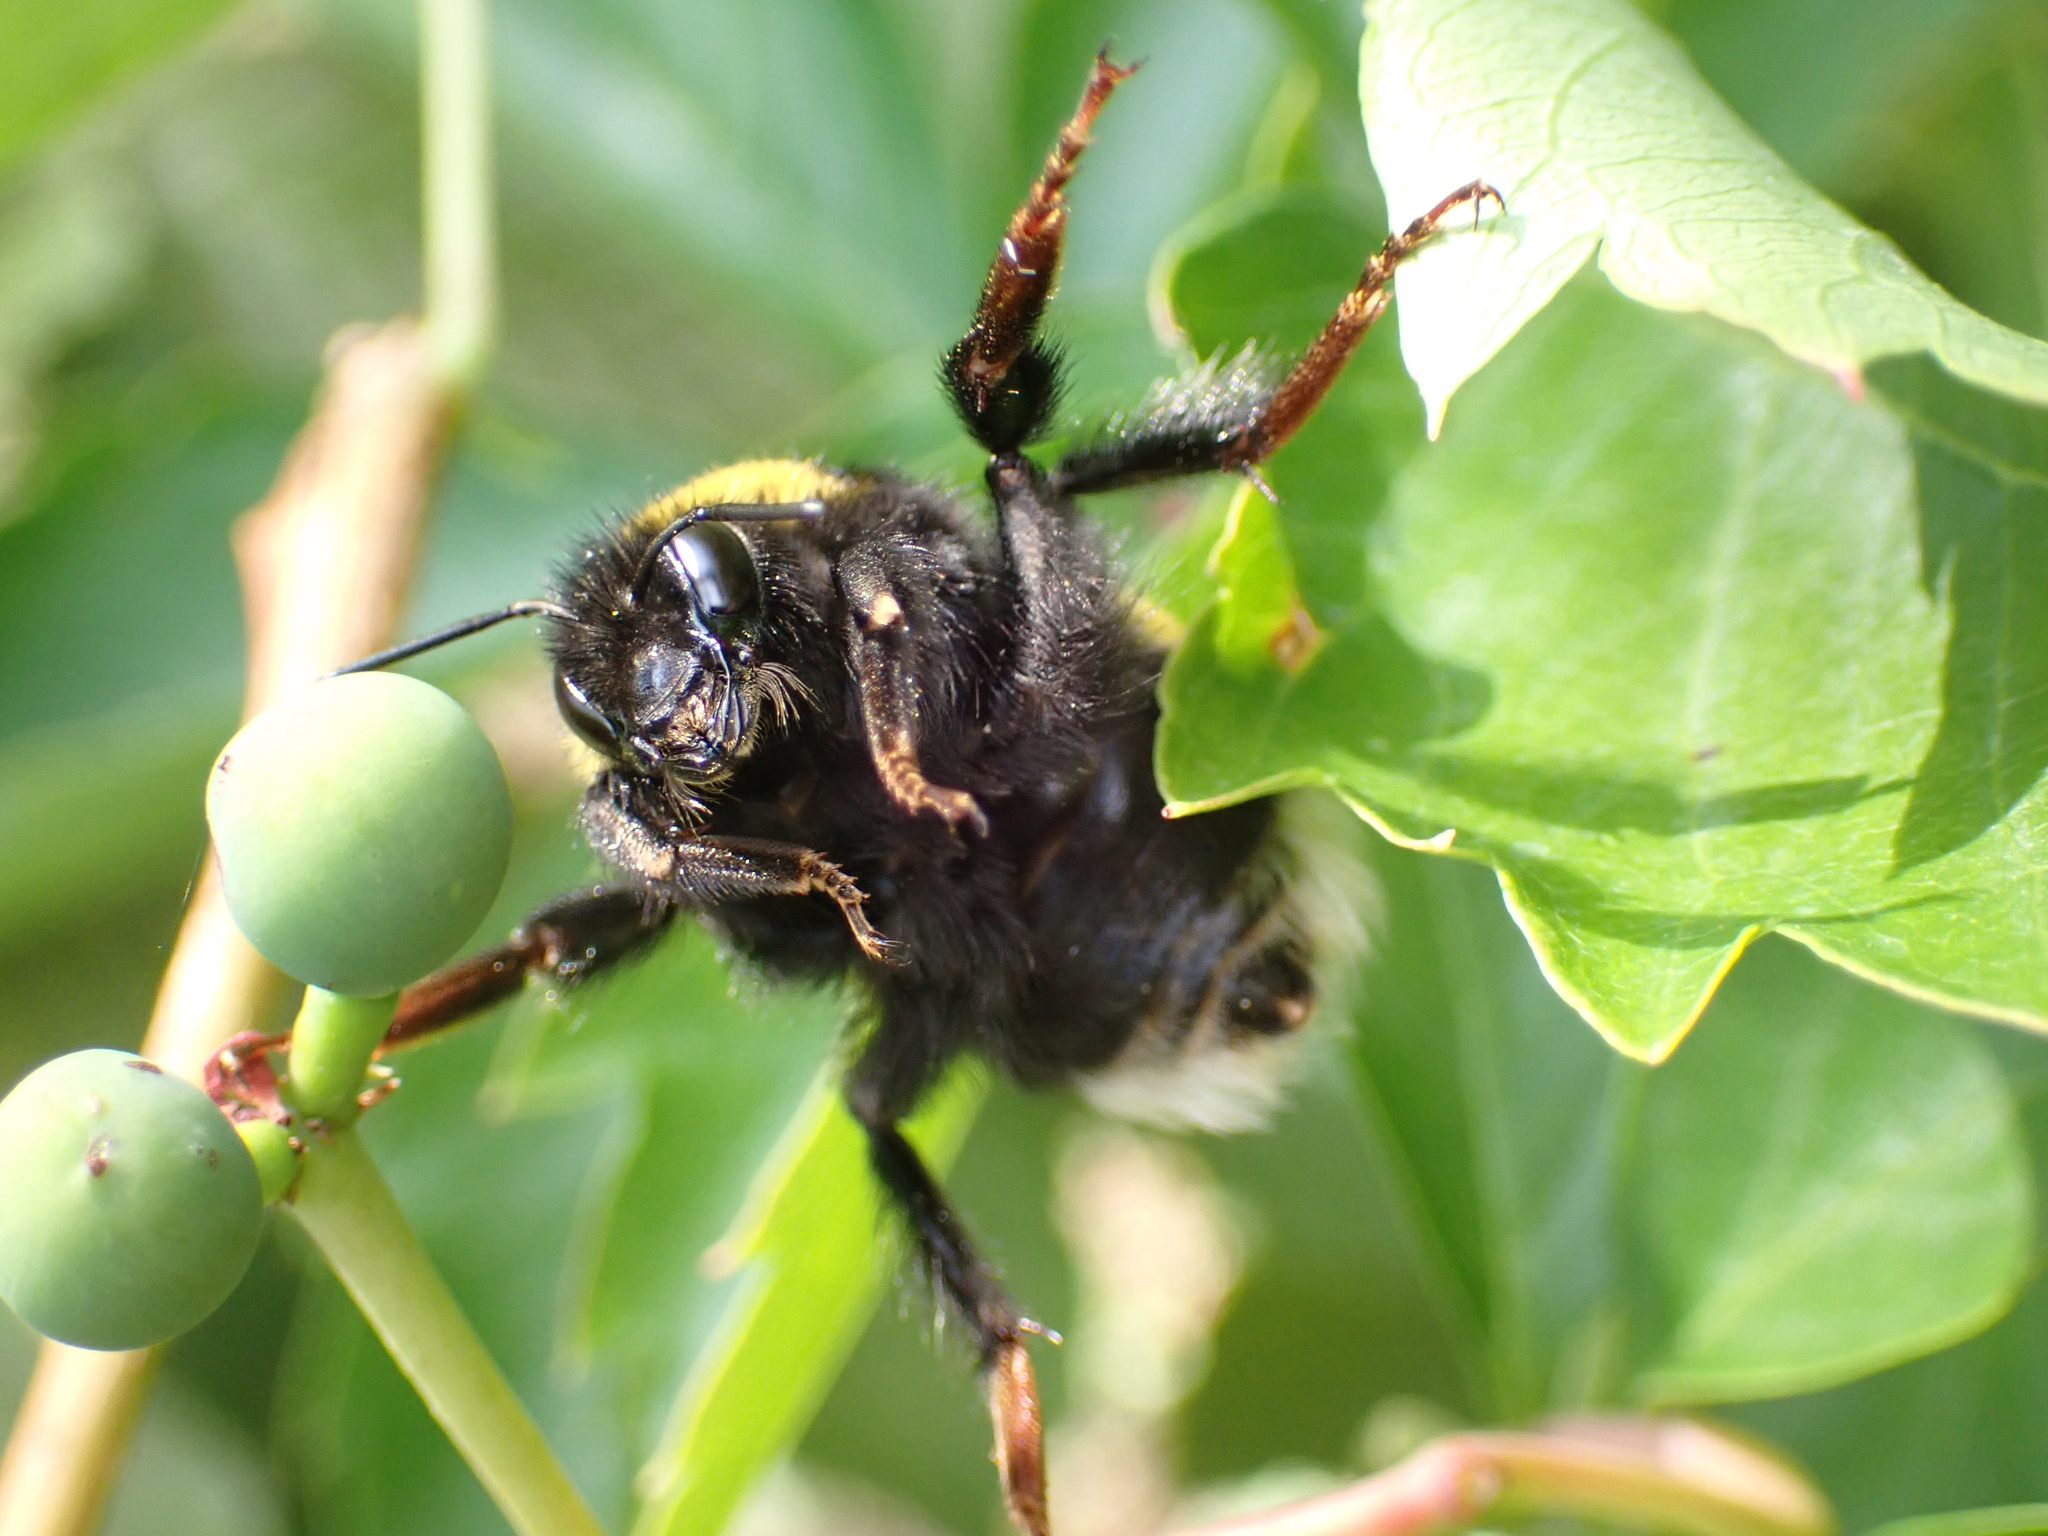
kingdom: Animalia
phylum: Arthropoda
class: Insecta
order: Hymenoptera
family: Apidae
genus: Bombus
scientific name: Bombus terrestris
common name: Buff-tailed bumblebee
